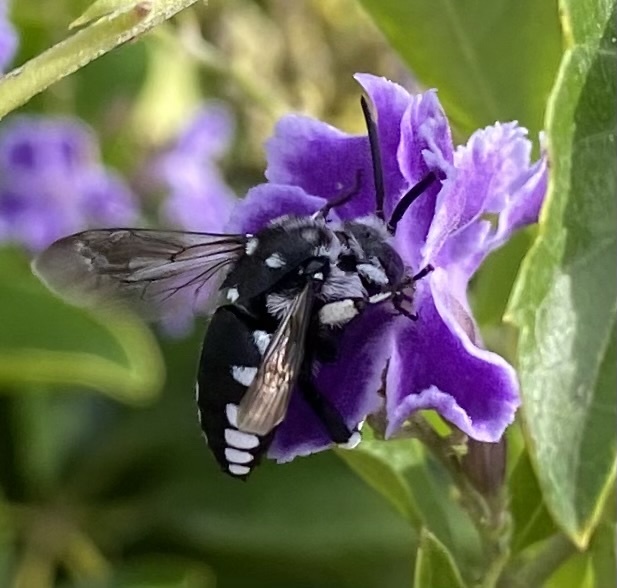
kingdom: Animalia
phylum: Arthropoda
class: Insecta
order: Hymenoptera
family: Apidae
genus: Thyreus
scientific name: Thyreus histrionicus
